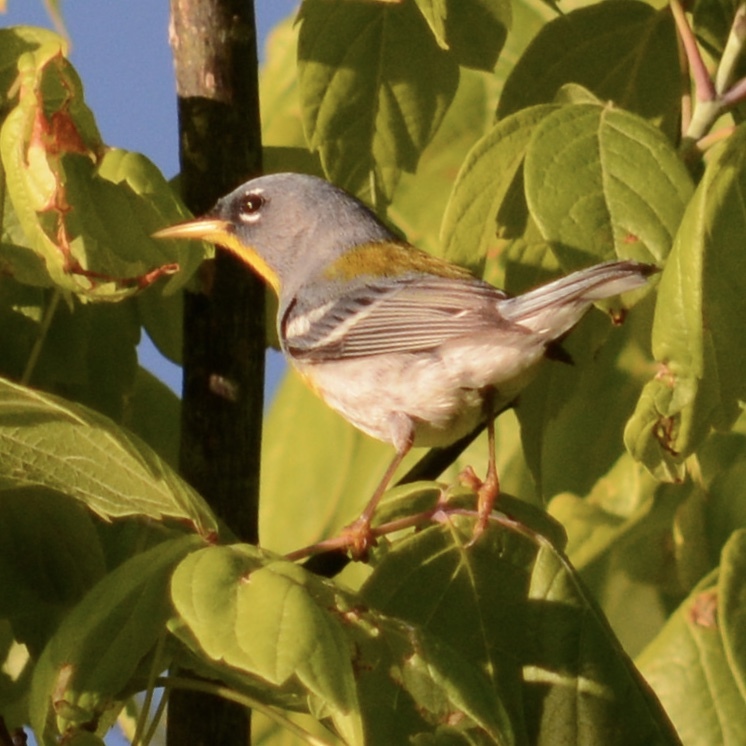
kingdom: Animalia
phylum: Chordata
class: Aves
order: Passeriformes
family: Parulidae
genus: Setophaga
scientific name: Setophaga americana
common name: Northern parula
